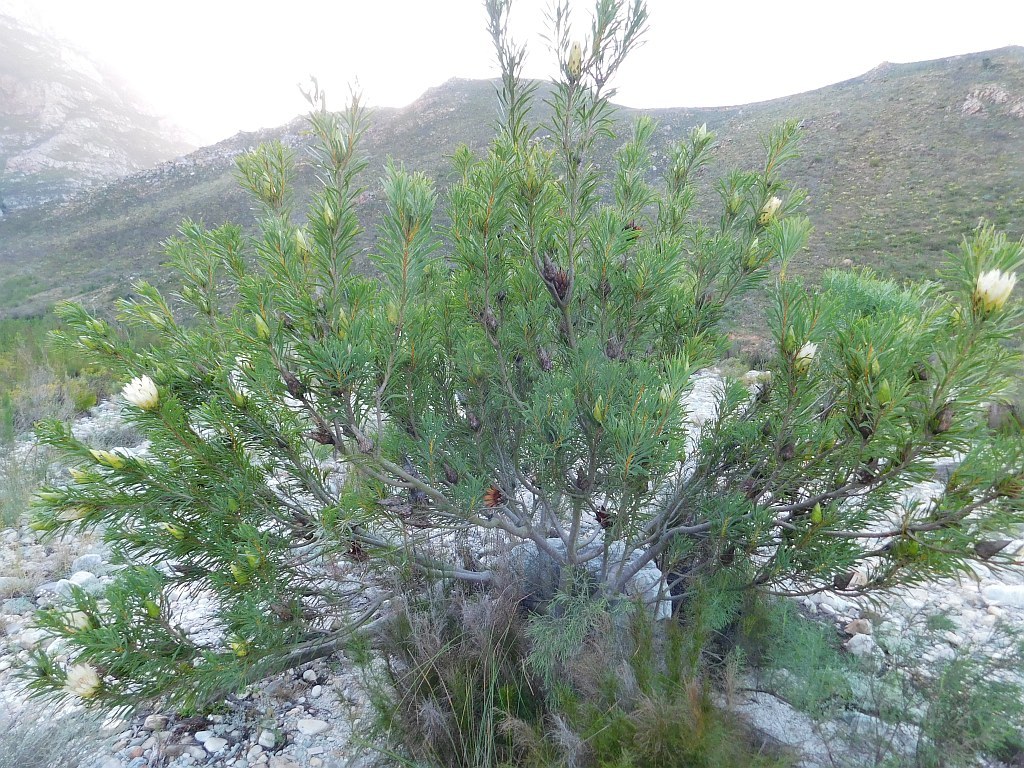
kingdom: Plantae
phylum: Tracheophyta
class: Magnoliopsida
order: Proteales
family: Proteaceae
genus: Protea
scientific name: Protea repens
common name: Sugarbush
